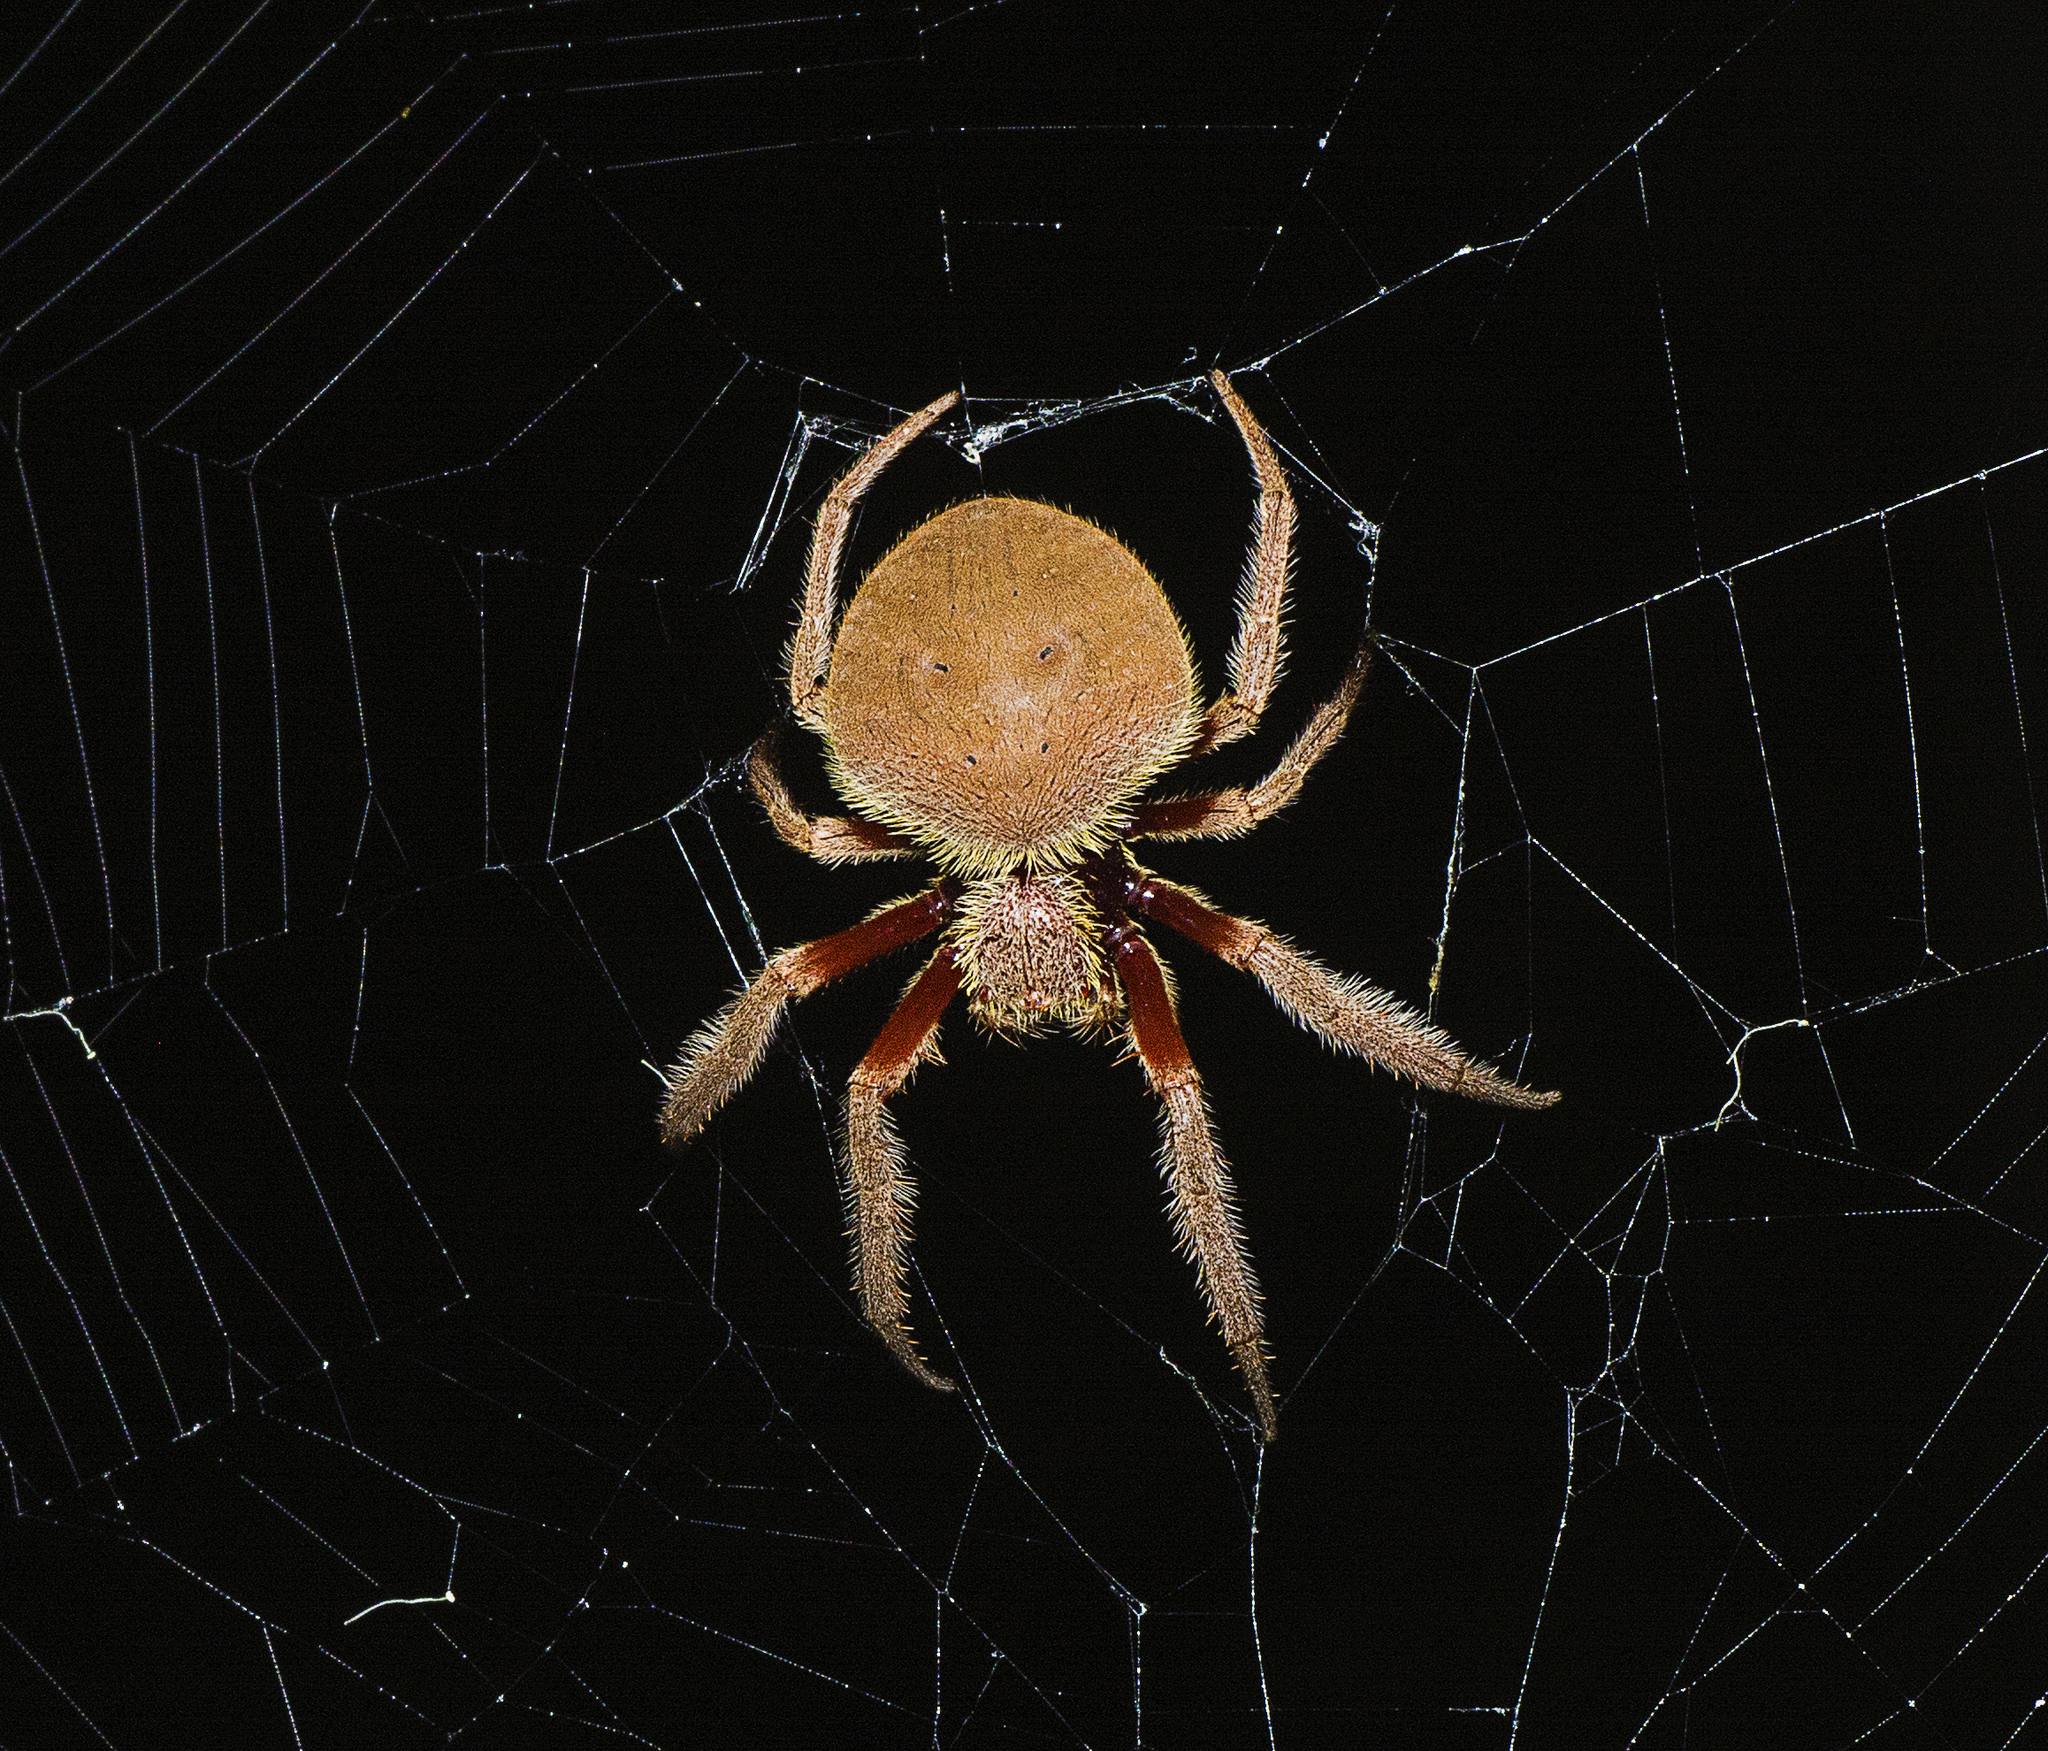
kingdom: Animalia
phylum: Arthropoda
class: Arachnida
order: Araneae
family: Araneidae
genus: Hortophora
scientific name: Hortophora transmarina
